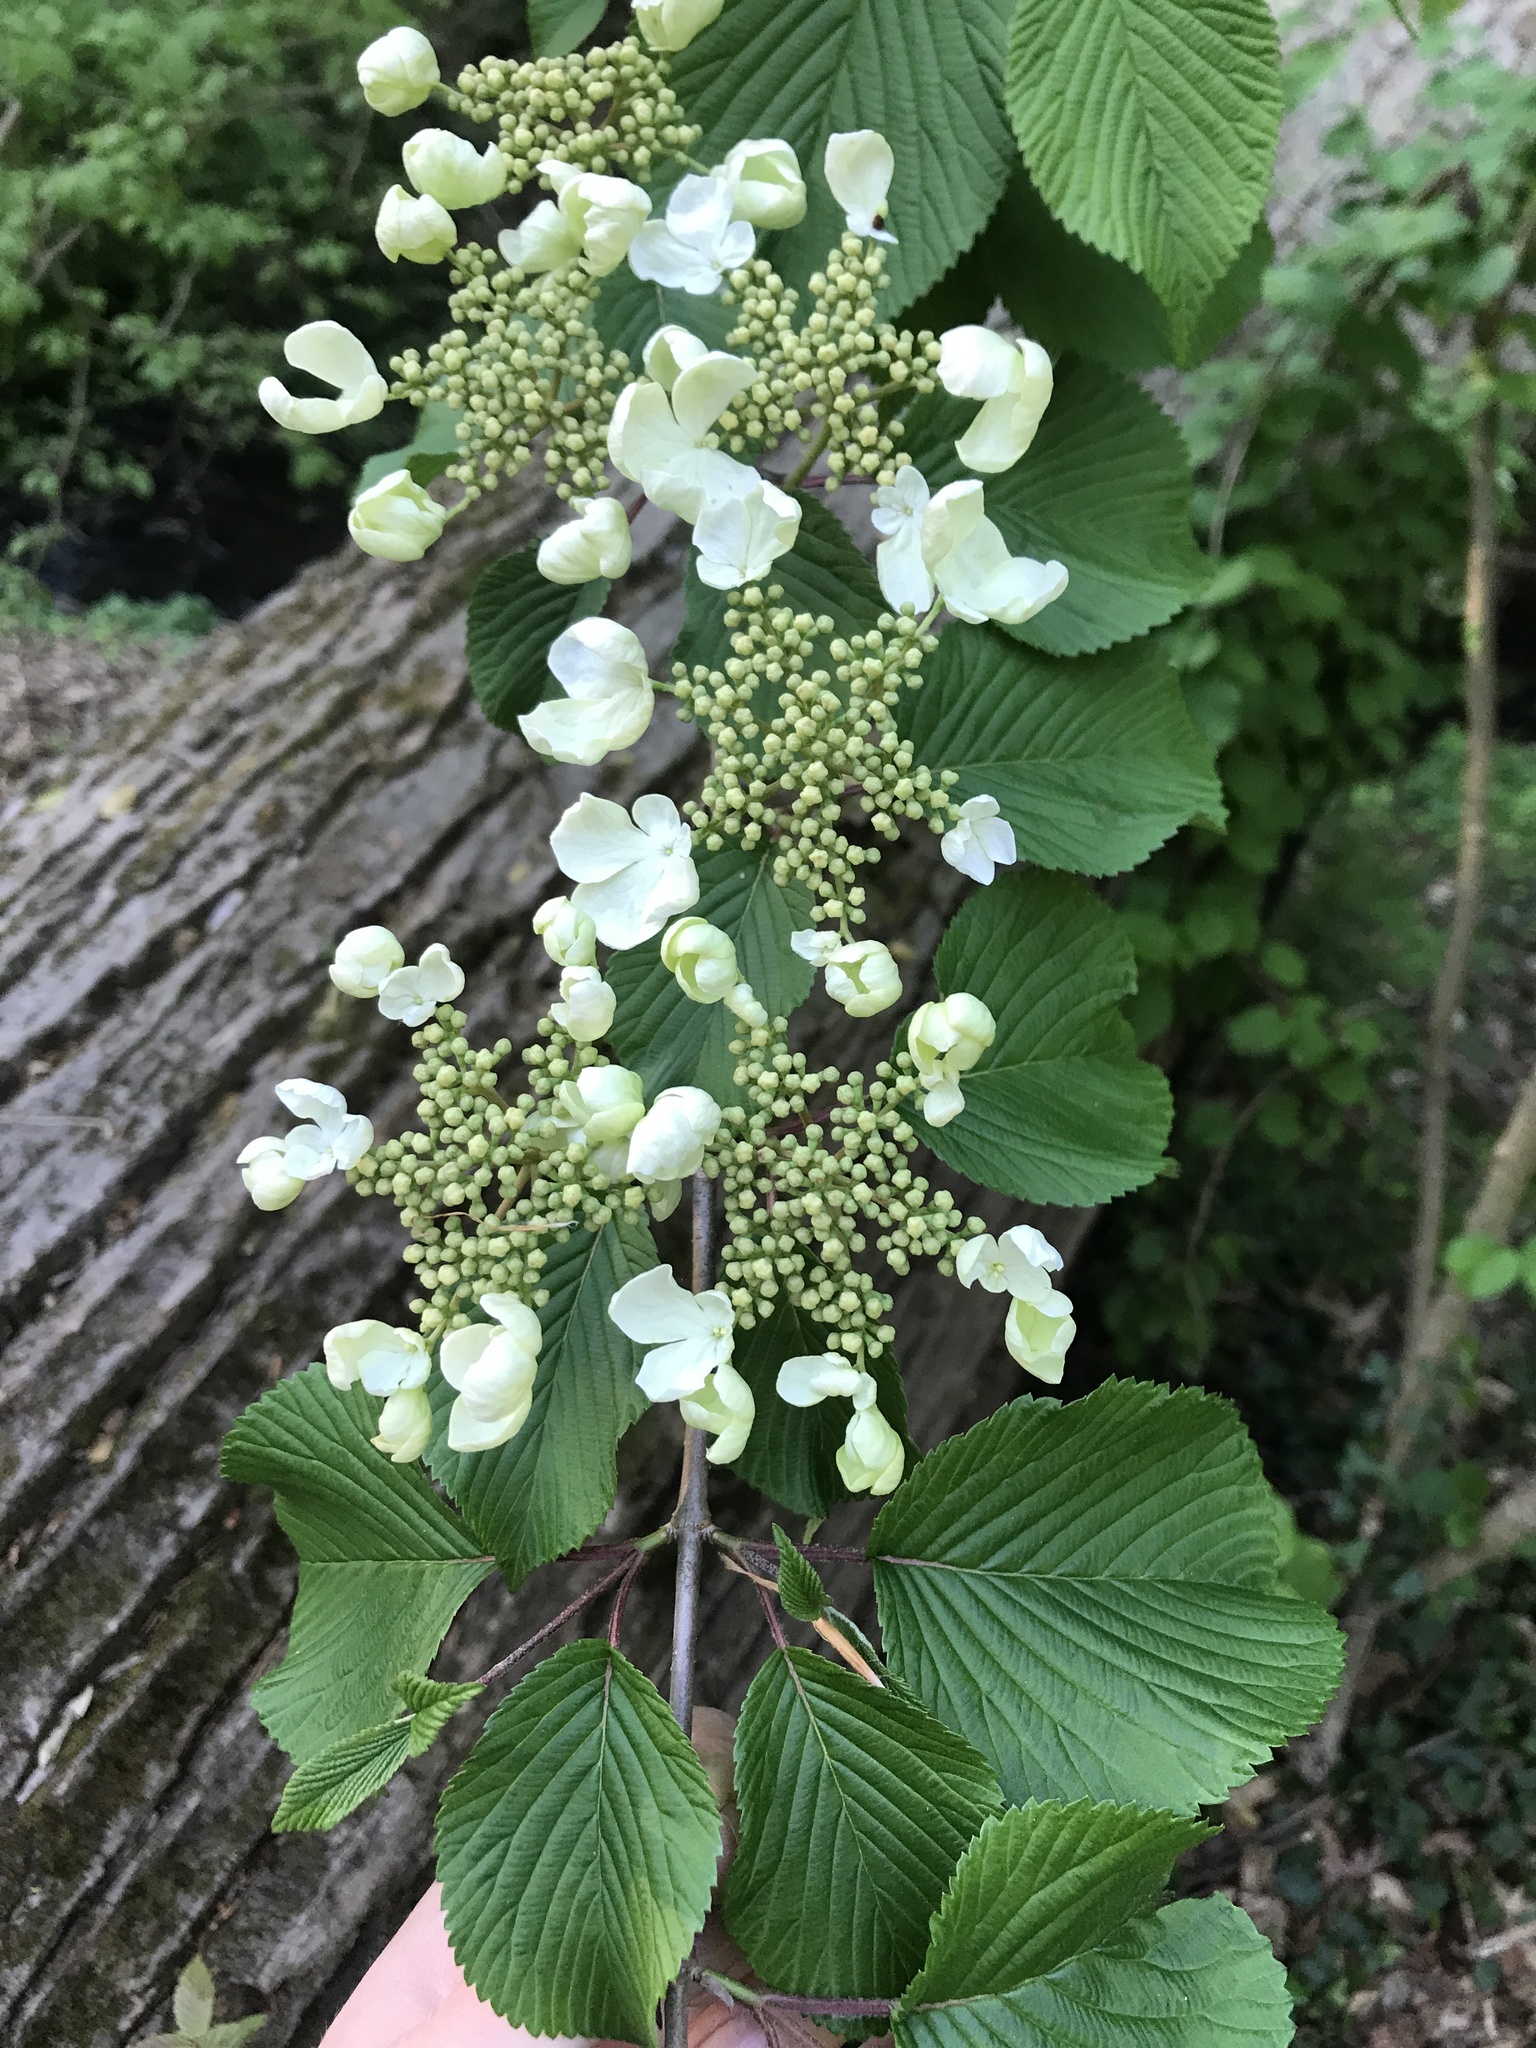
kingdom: Plantae
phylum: Tracheophyta
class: Magnoliopsida
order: Dipsacales
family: Viburnaceae
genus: Viburnum
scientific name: Viburnum plicatum
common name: Japanese snowball
